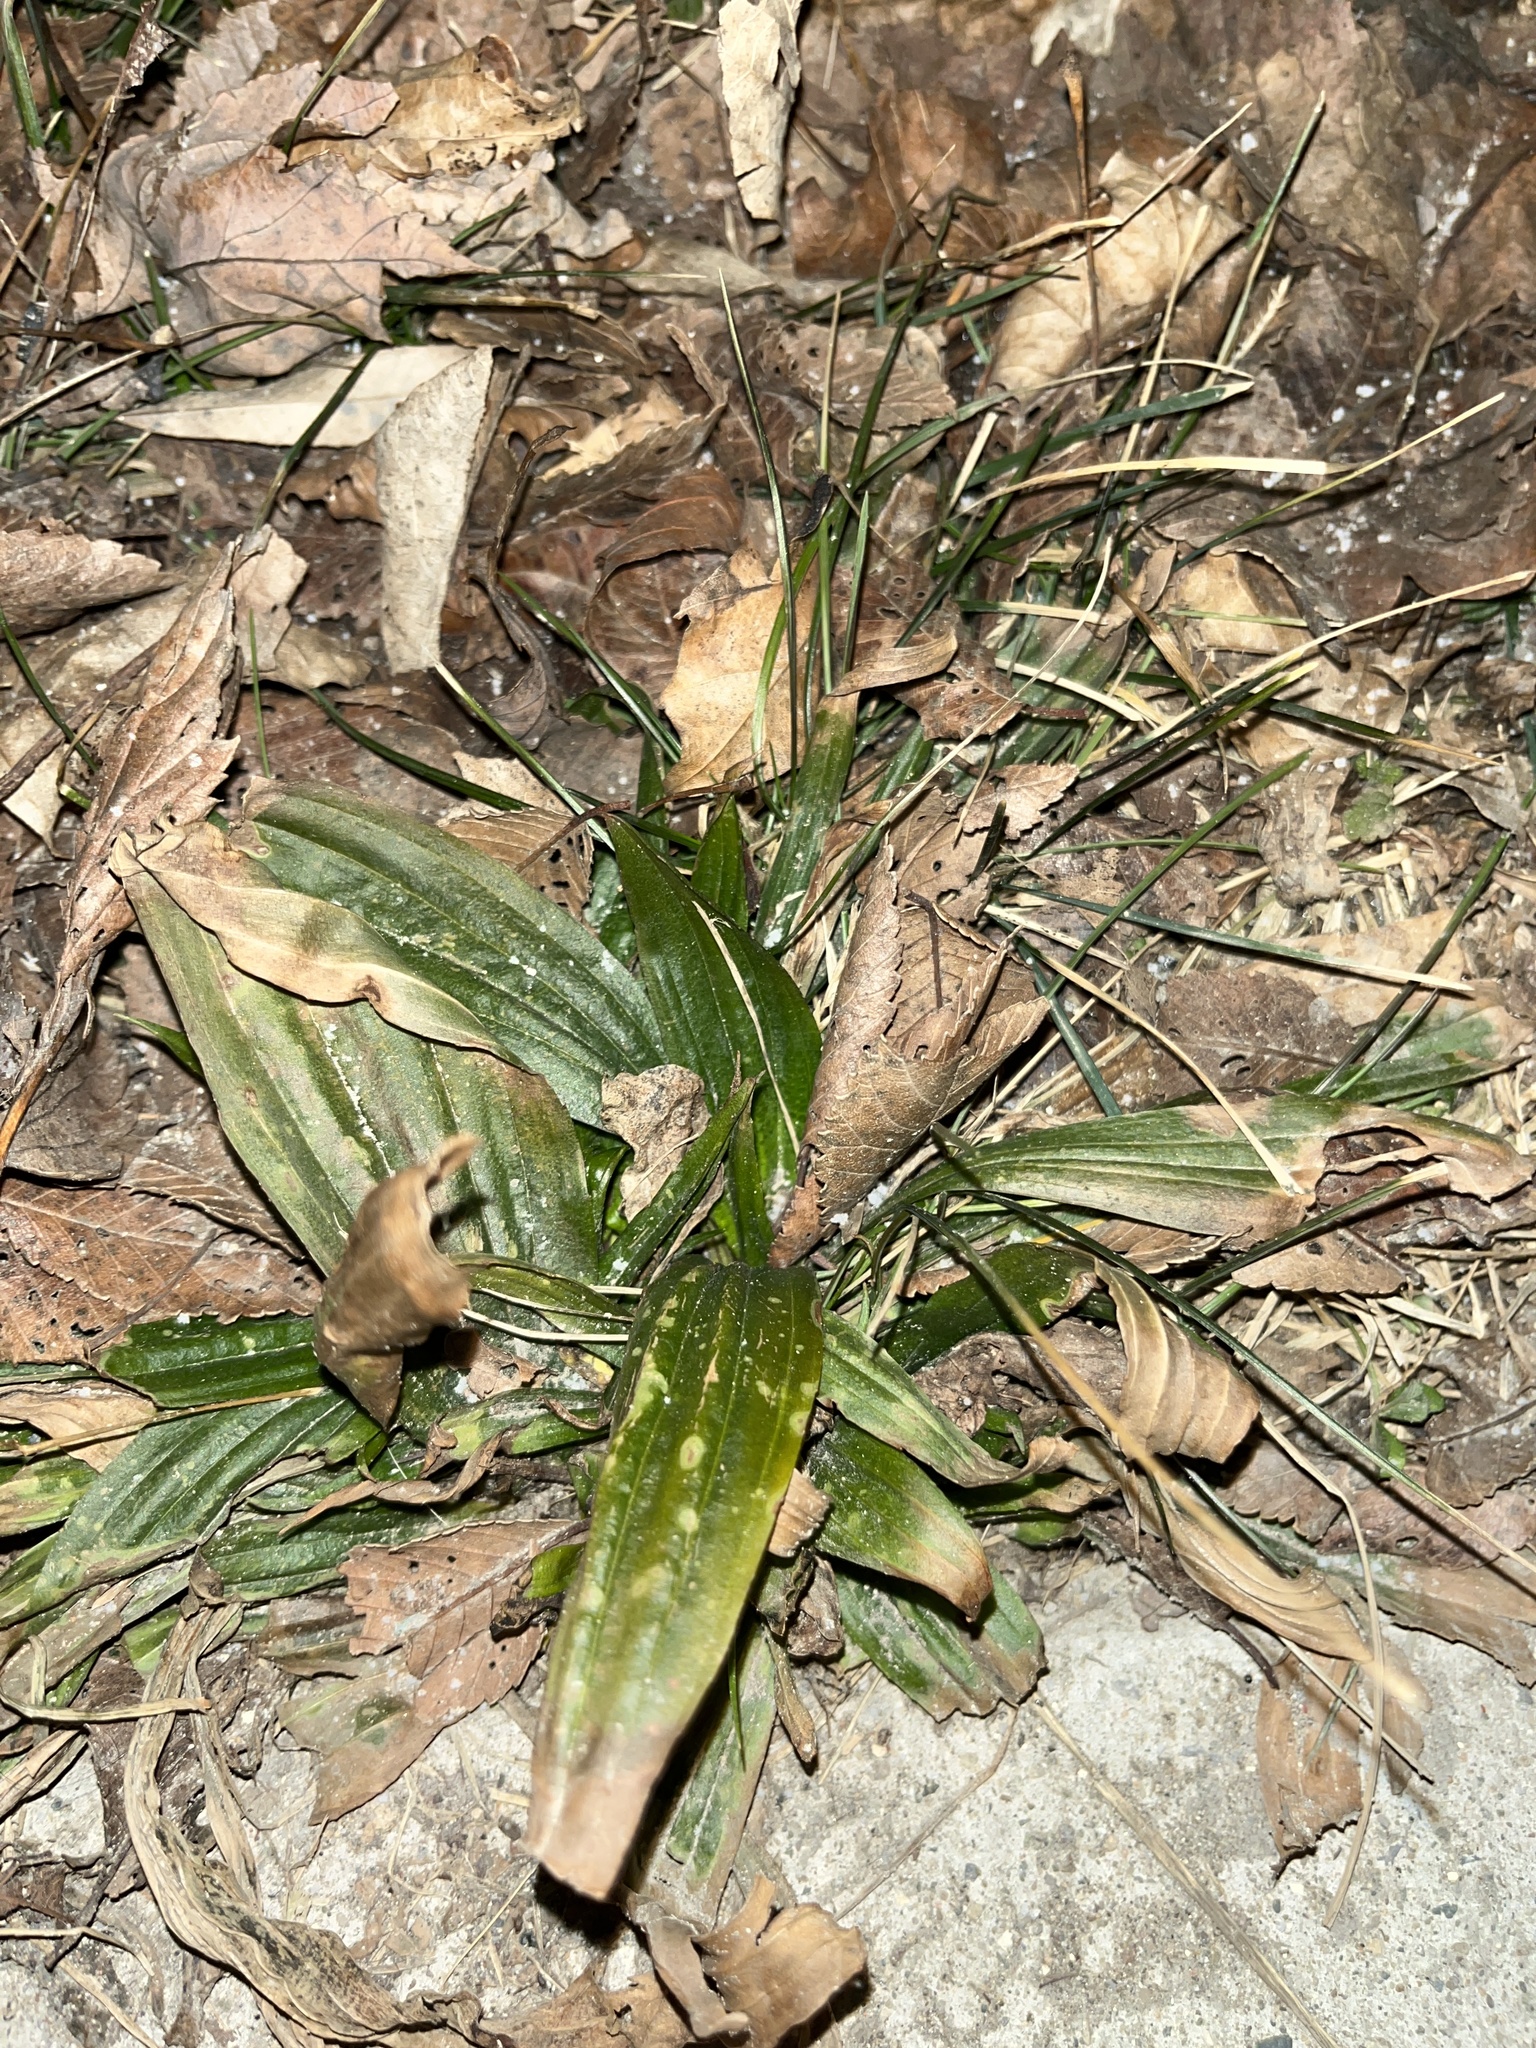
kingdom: Plantae
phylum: Tracheophyta
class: Magnoliopsida
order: Lamiales
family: Plantaginaceae
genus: Plantago
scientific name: Plantago lanceolata
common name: Ribwort plantain
